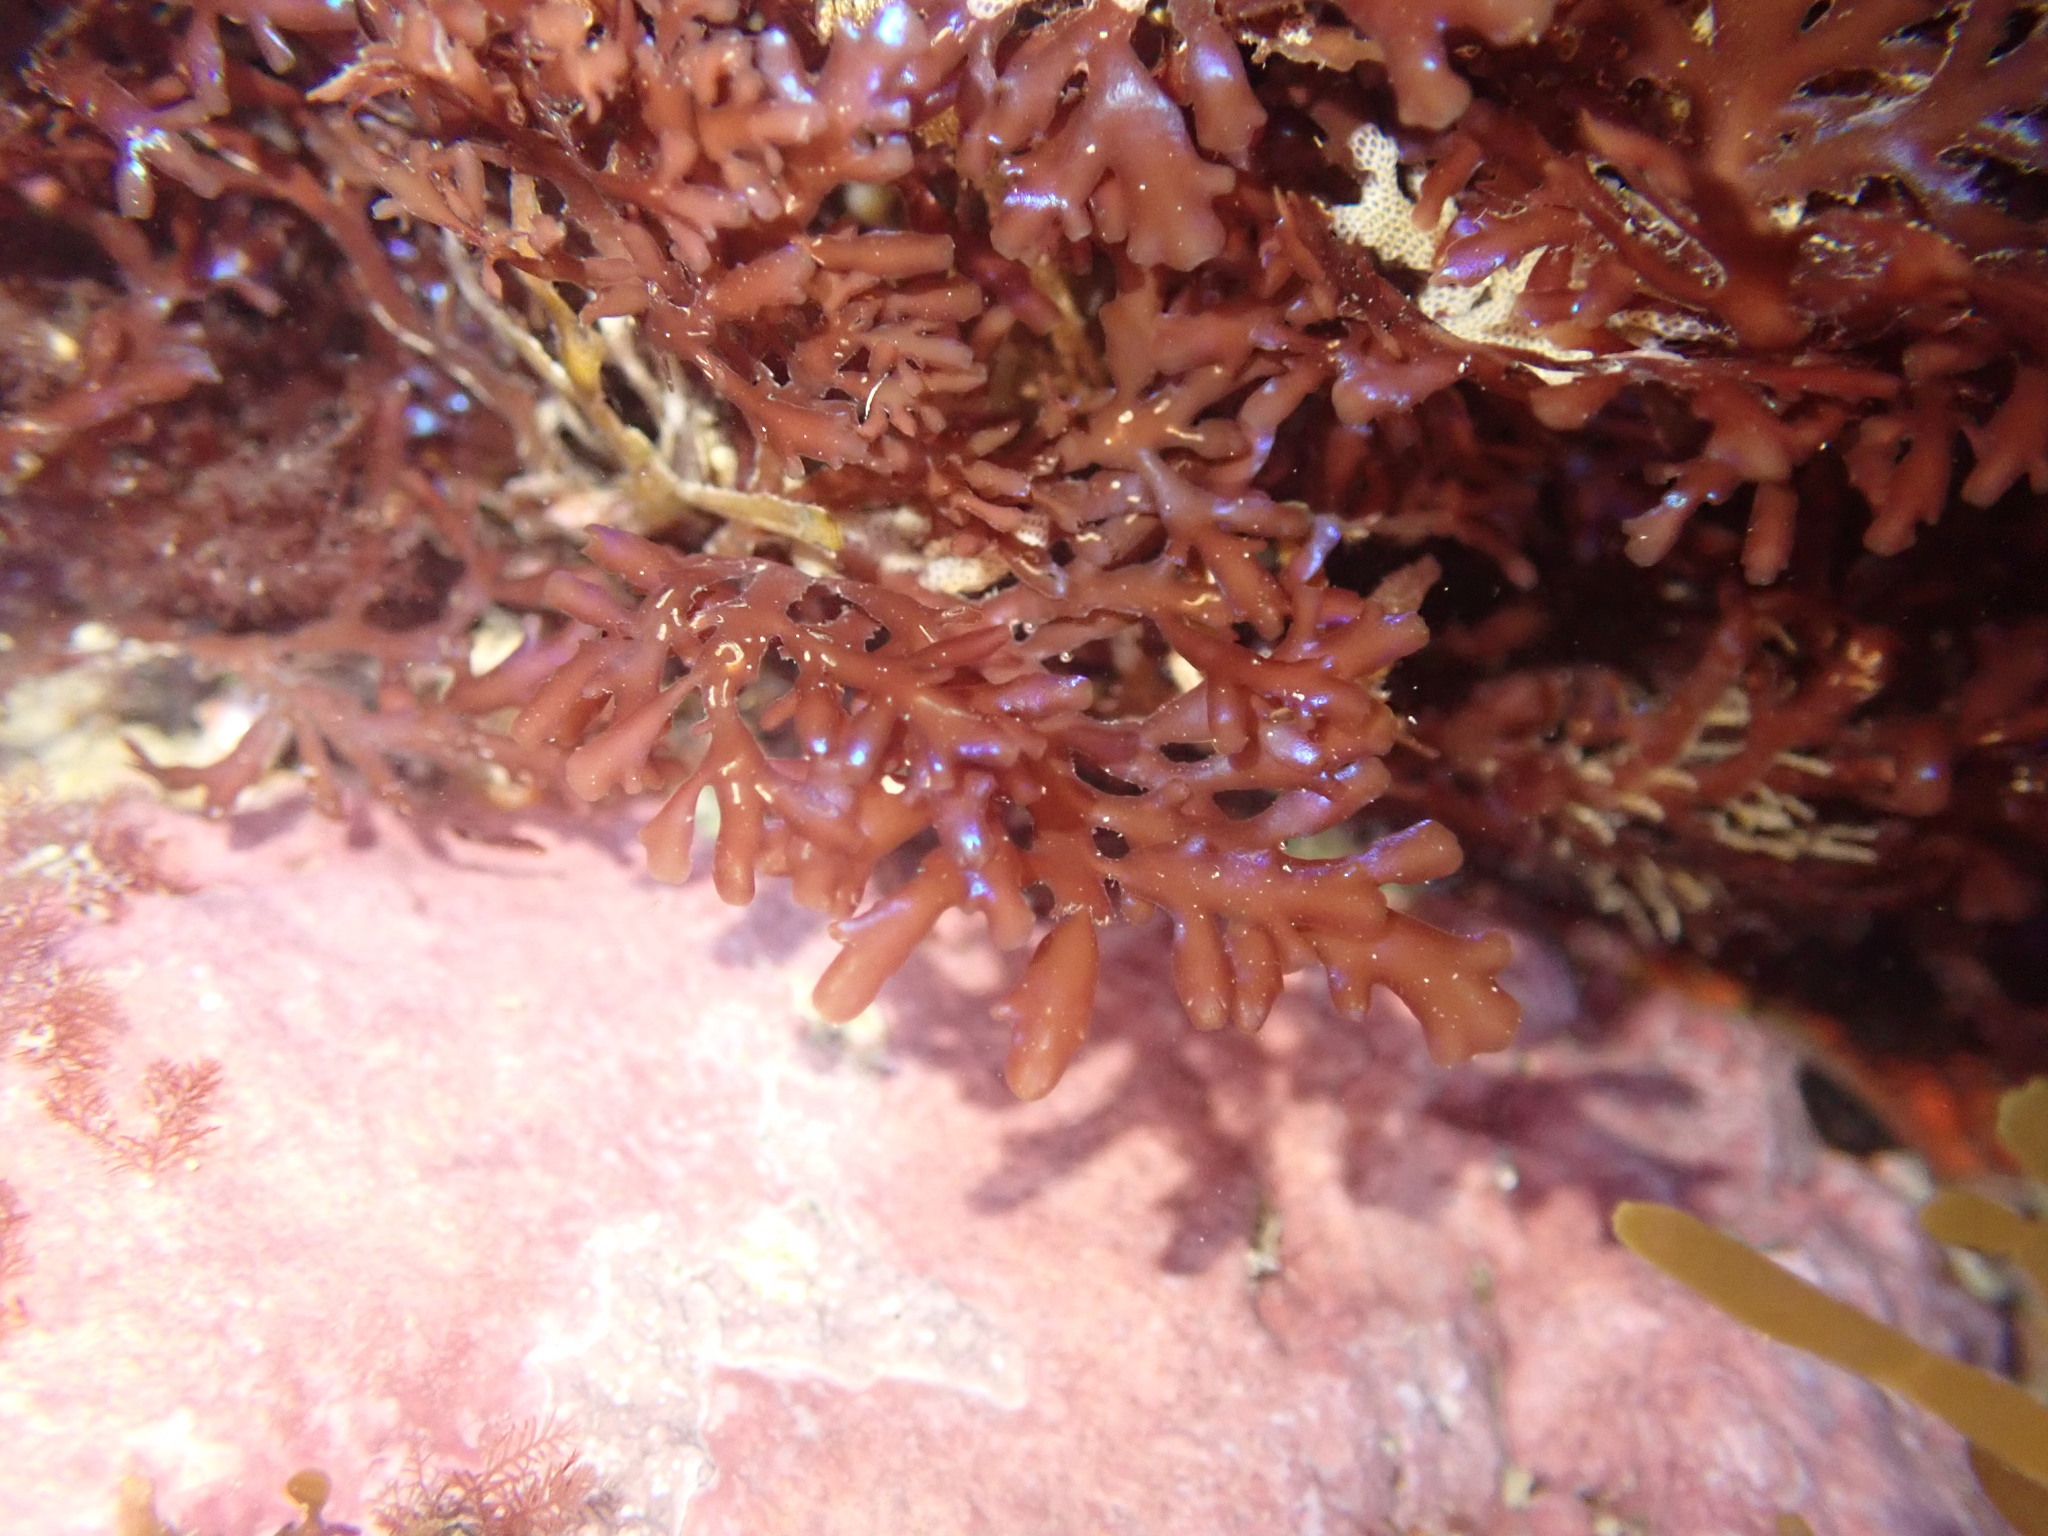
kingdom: Plantae
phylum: Rhodophyta
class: Florideophyceae
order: Gelidiales
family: Pterocladiaceae
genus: Pterocladia
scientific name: Pterocladia lucida
